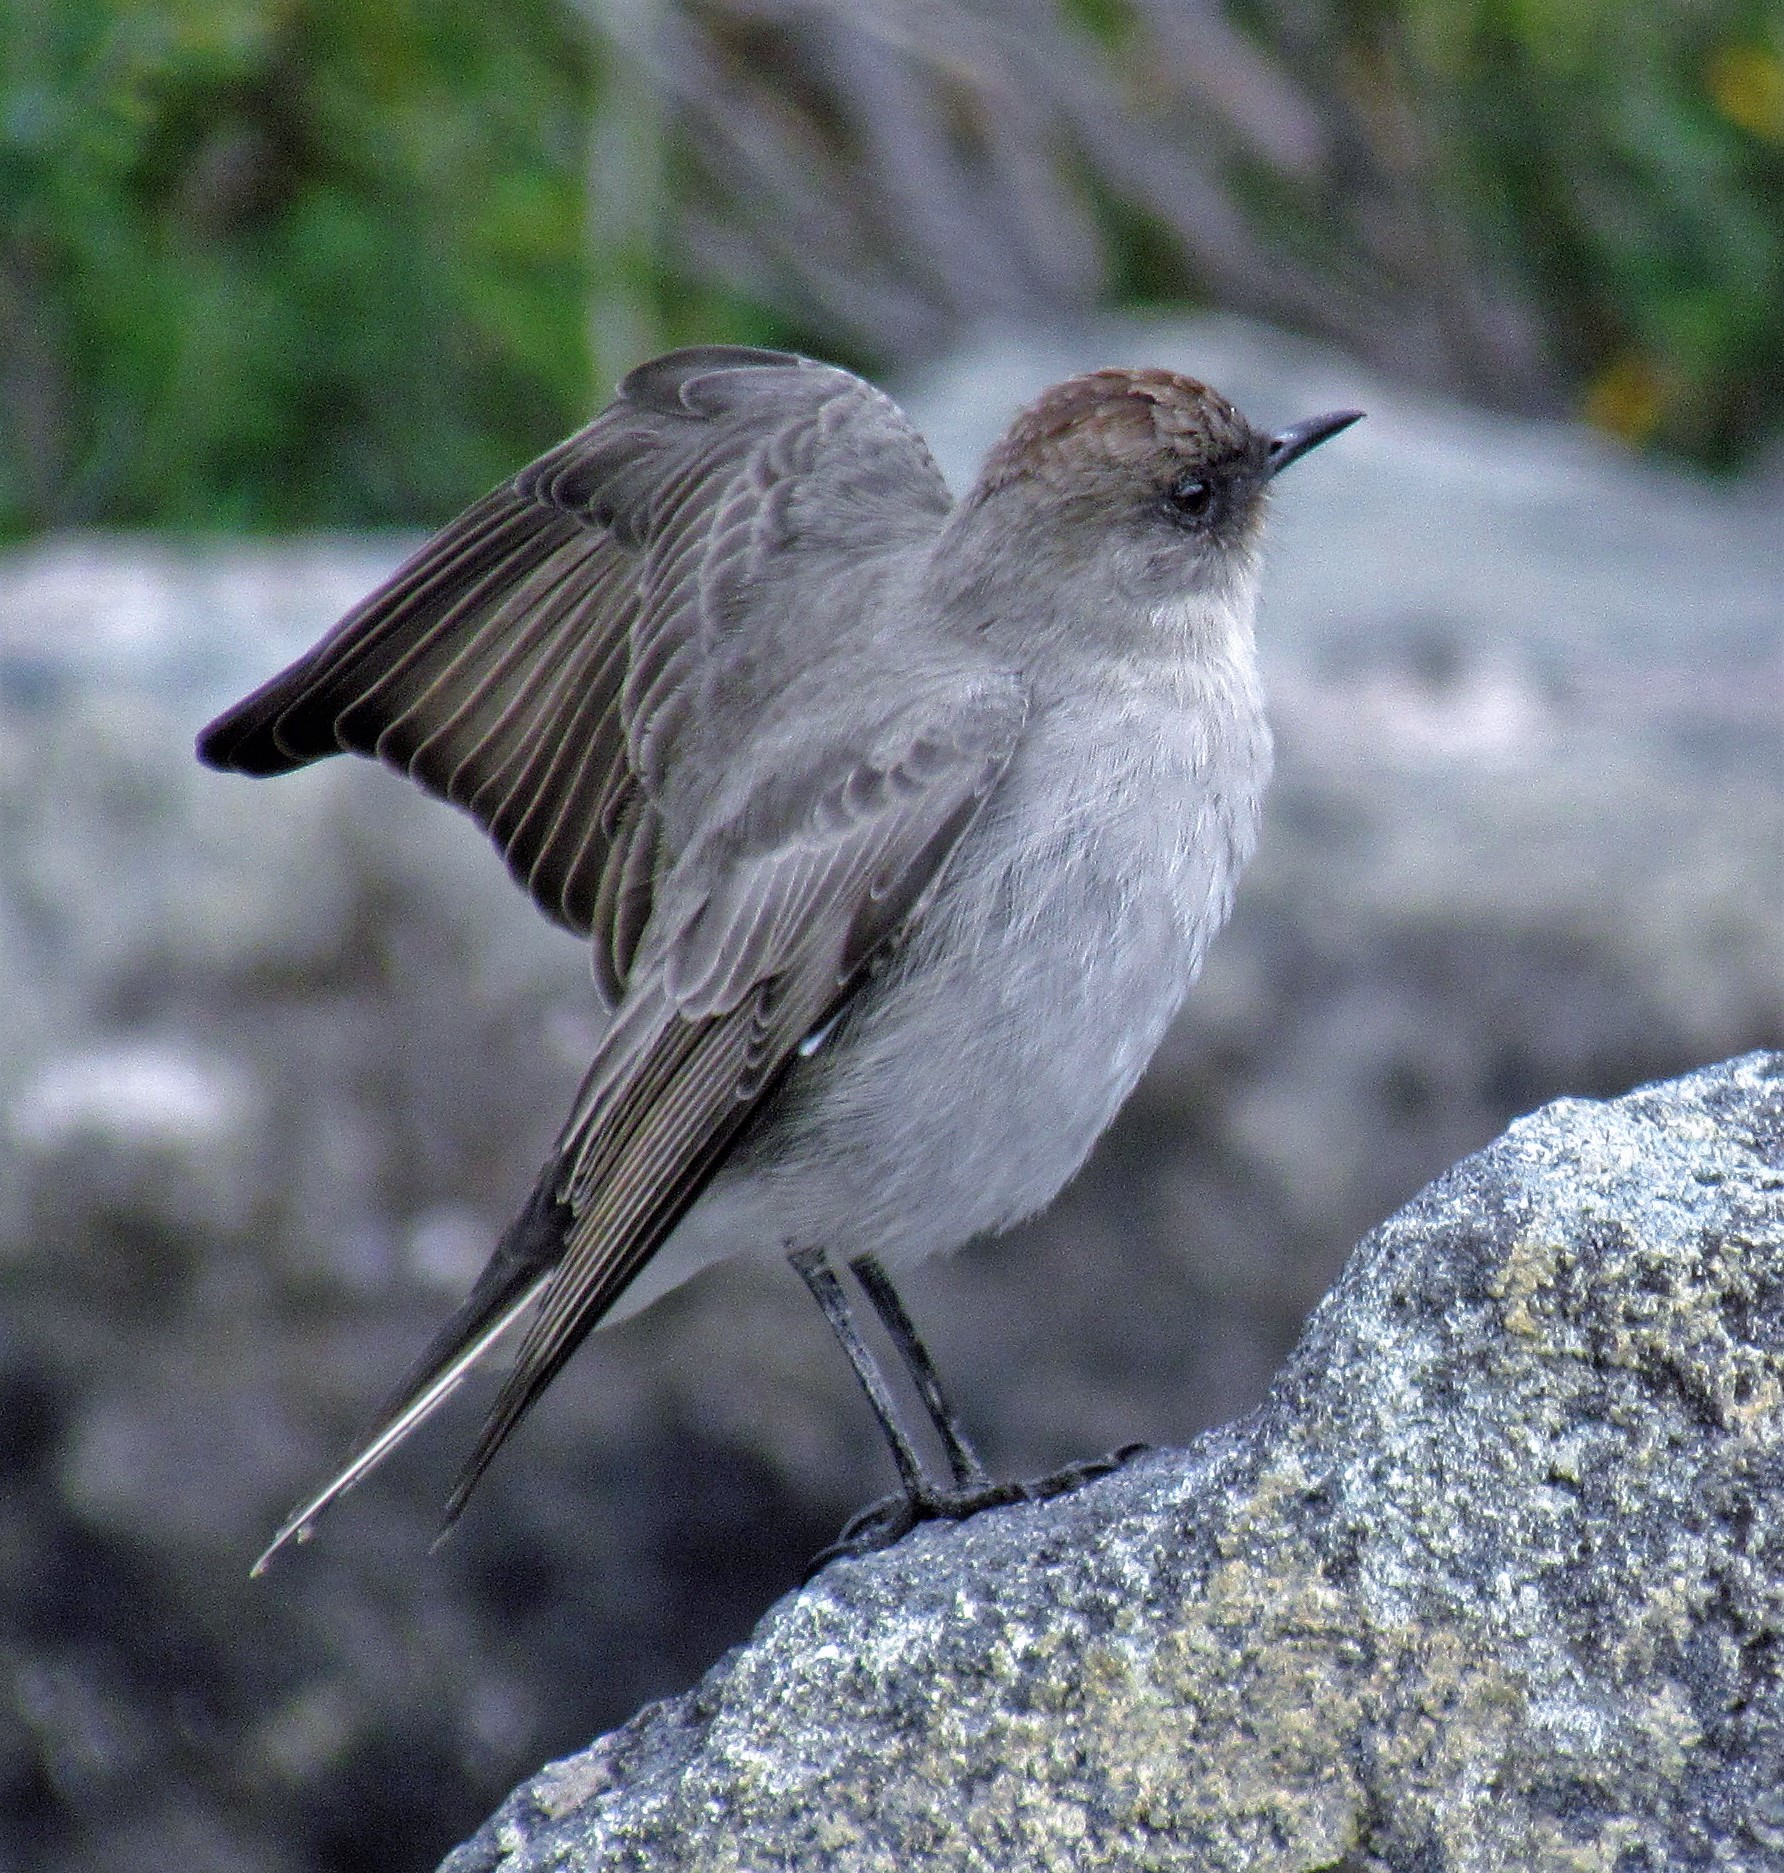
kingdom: Animalia
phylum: Chordata
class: Aves
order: Passeriformes
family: Tyrannidae
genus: Muscisaxicola
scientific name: Muscisaxicola maclovianus
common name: Dark-faced ground tyrant
